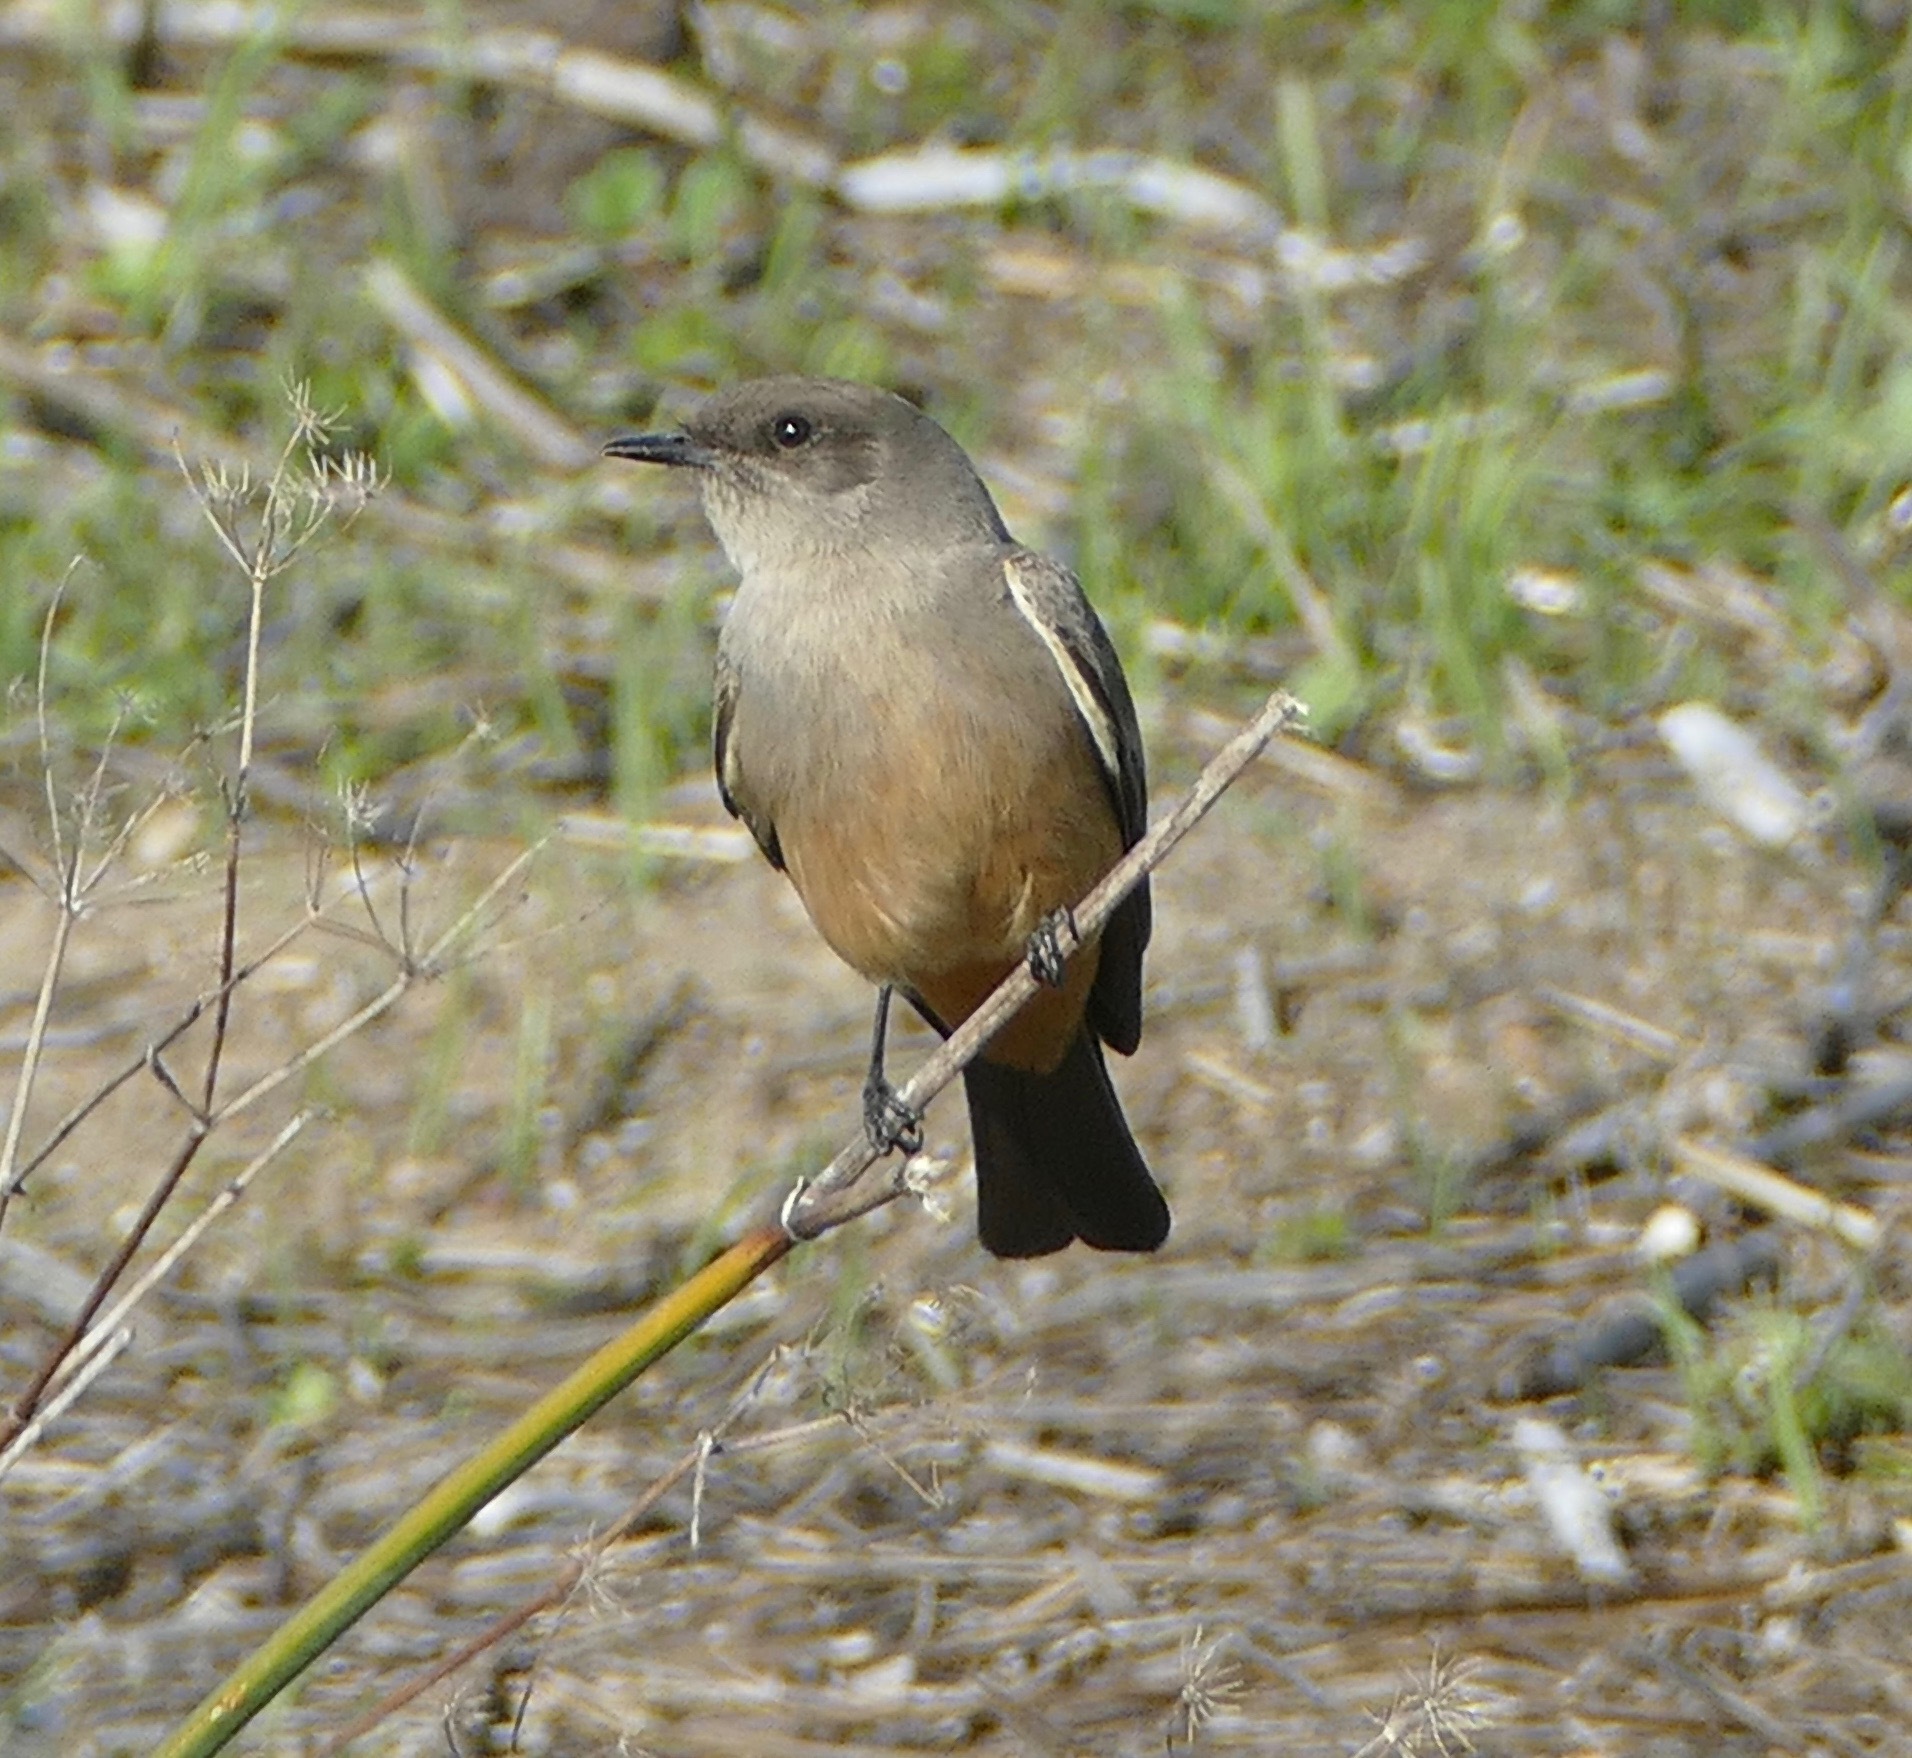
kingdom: Animalia
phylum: Chordata
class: Aves
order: Passeriformes
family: Tyrannidae
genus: Sayornis
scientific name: Sayornis saya
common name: Say's phoebe
